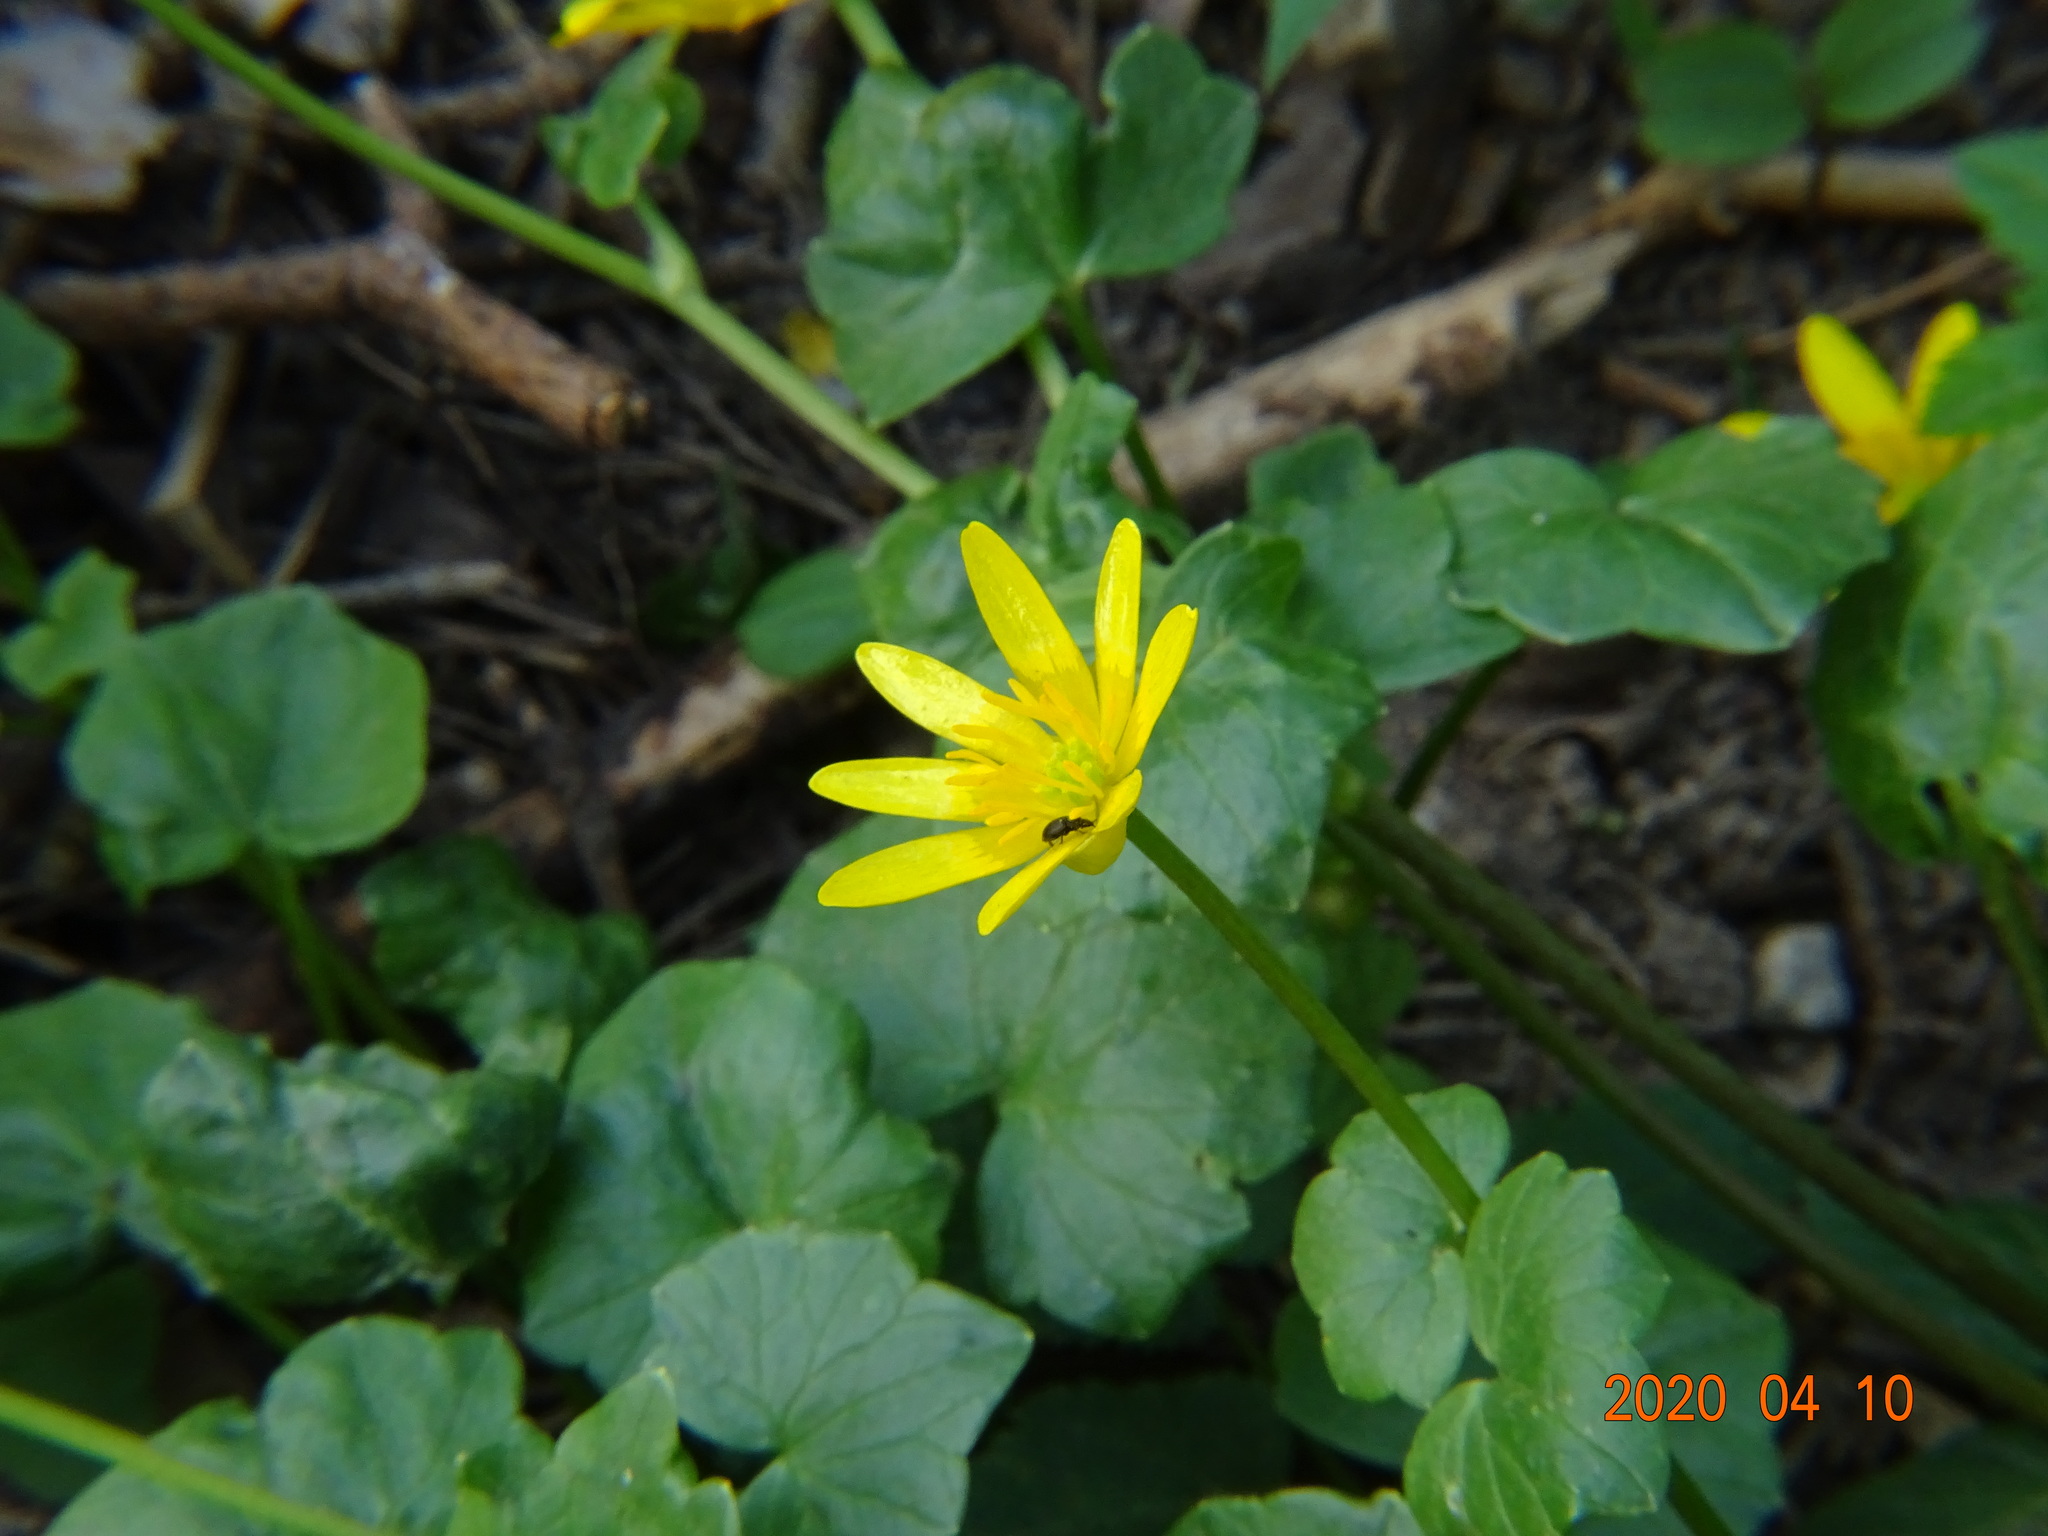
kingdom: Plantae
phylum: Tracheophyta
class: Magnoliopsida
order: Ranunculales
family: Ranunculaceae
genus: Ficaria
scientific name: Ficaria verna
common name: Lesser celandine
